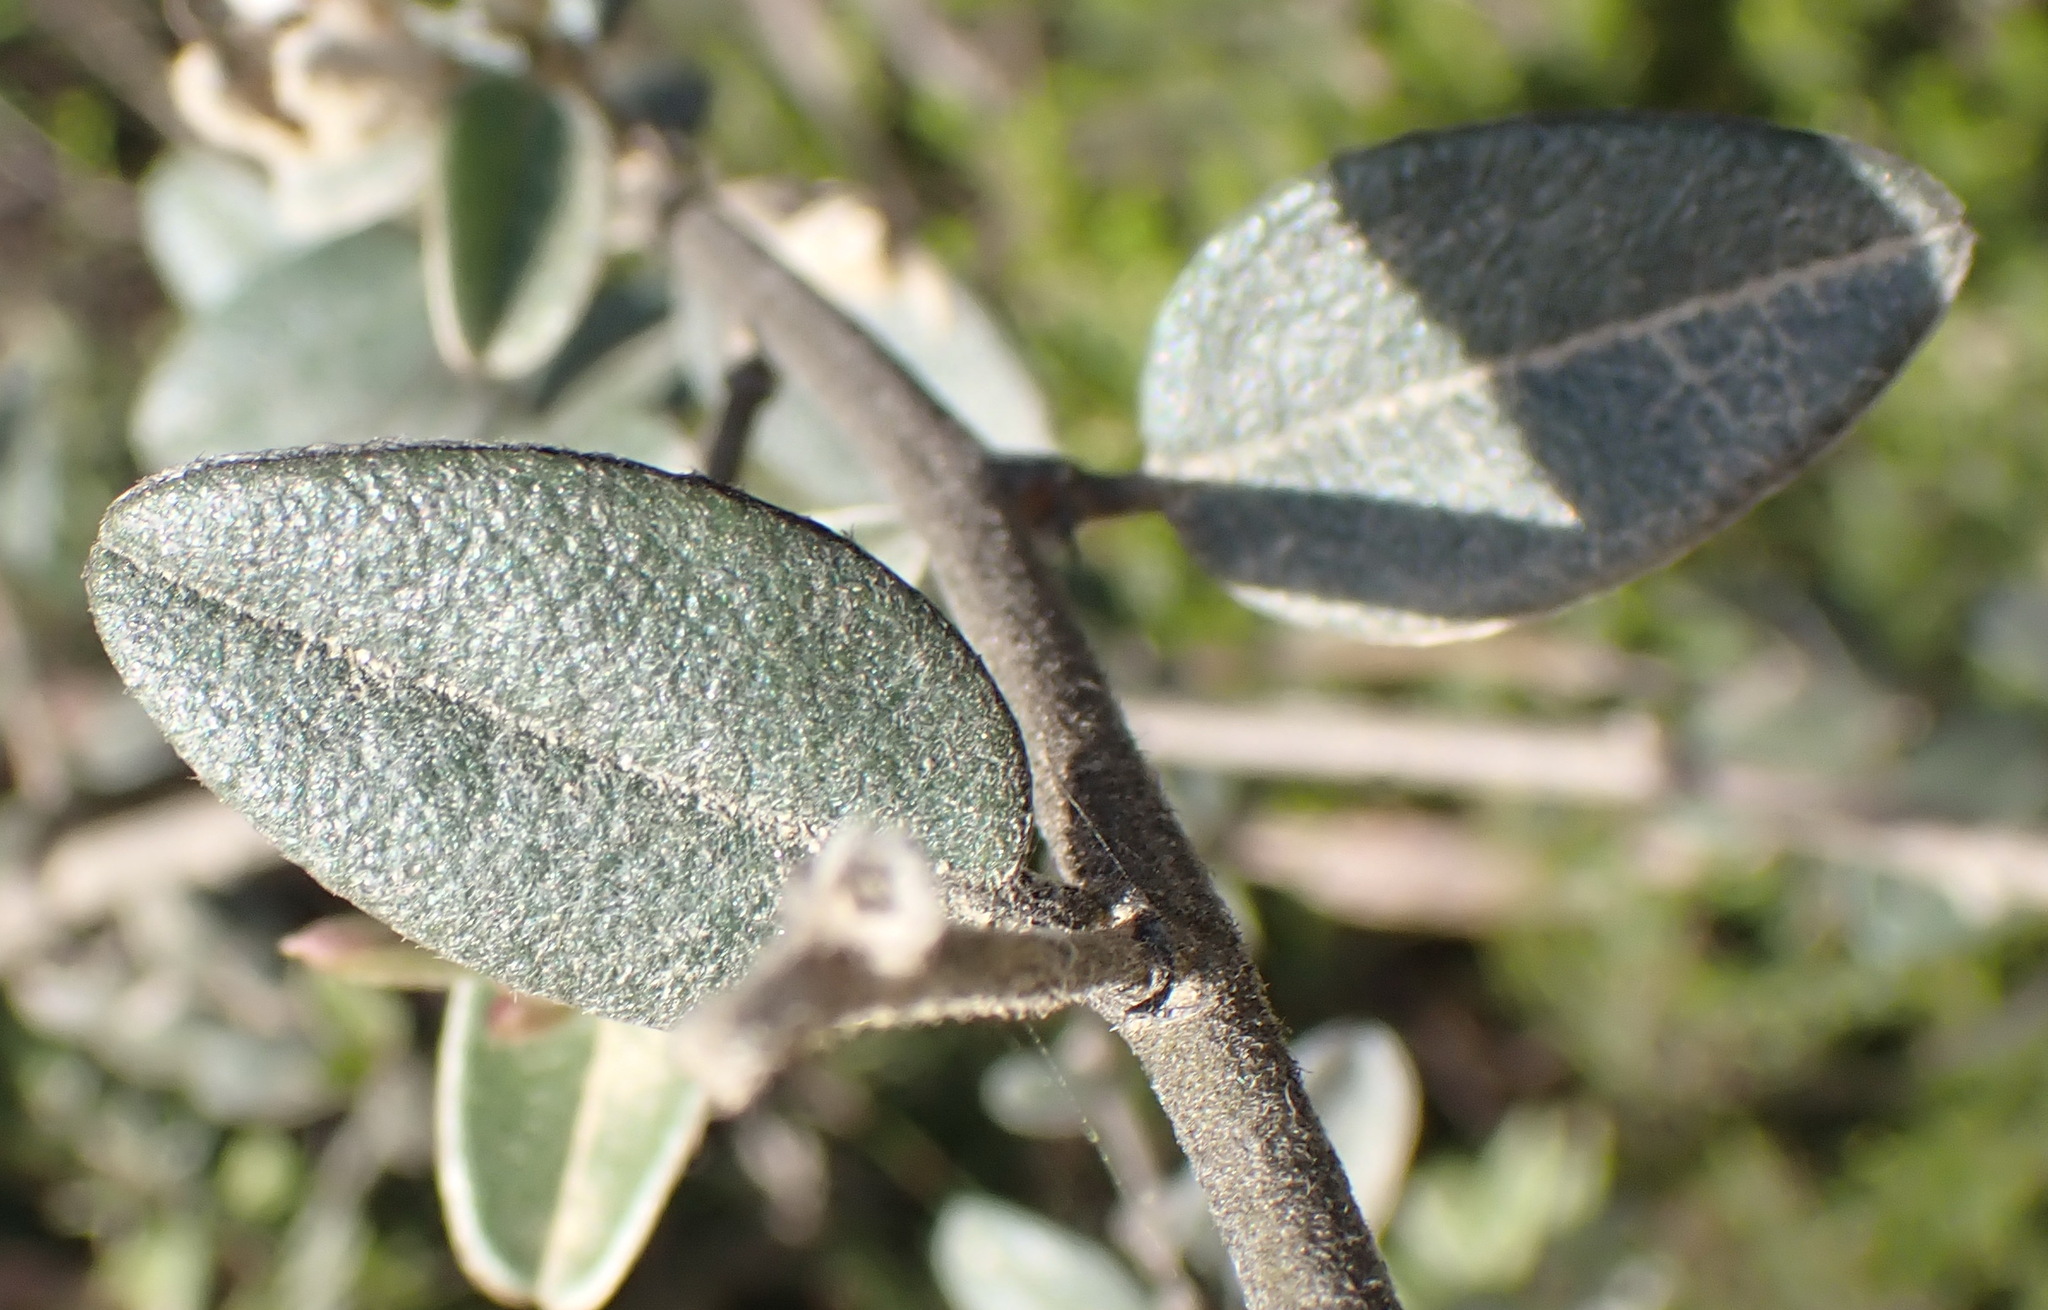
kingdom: Plantae
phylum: Tracheophyta
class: Magnoliopsida
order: Fabales
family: Fabaceae
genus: Podalyria
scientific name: Podalyria burchellii
